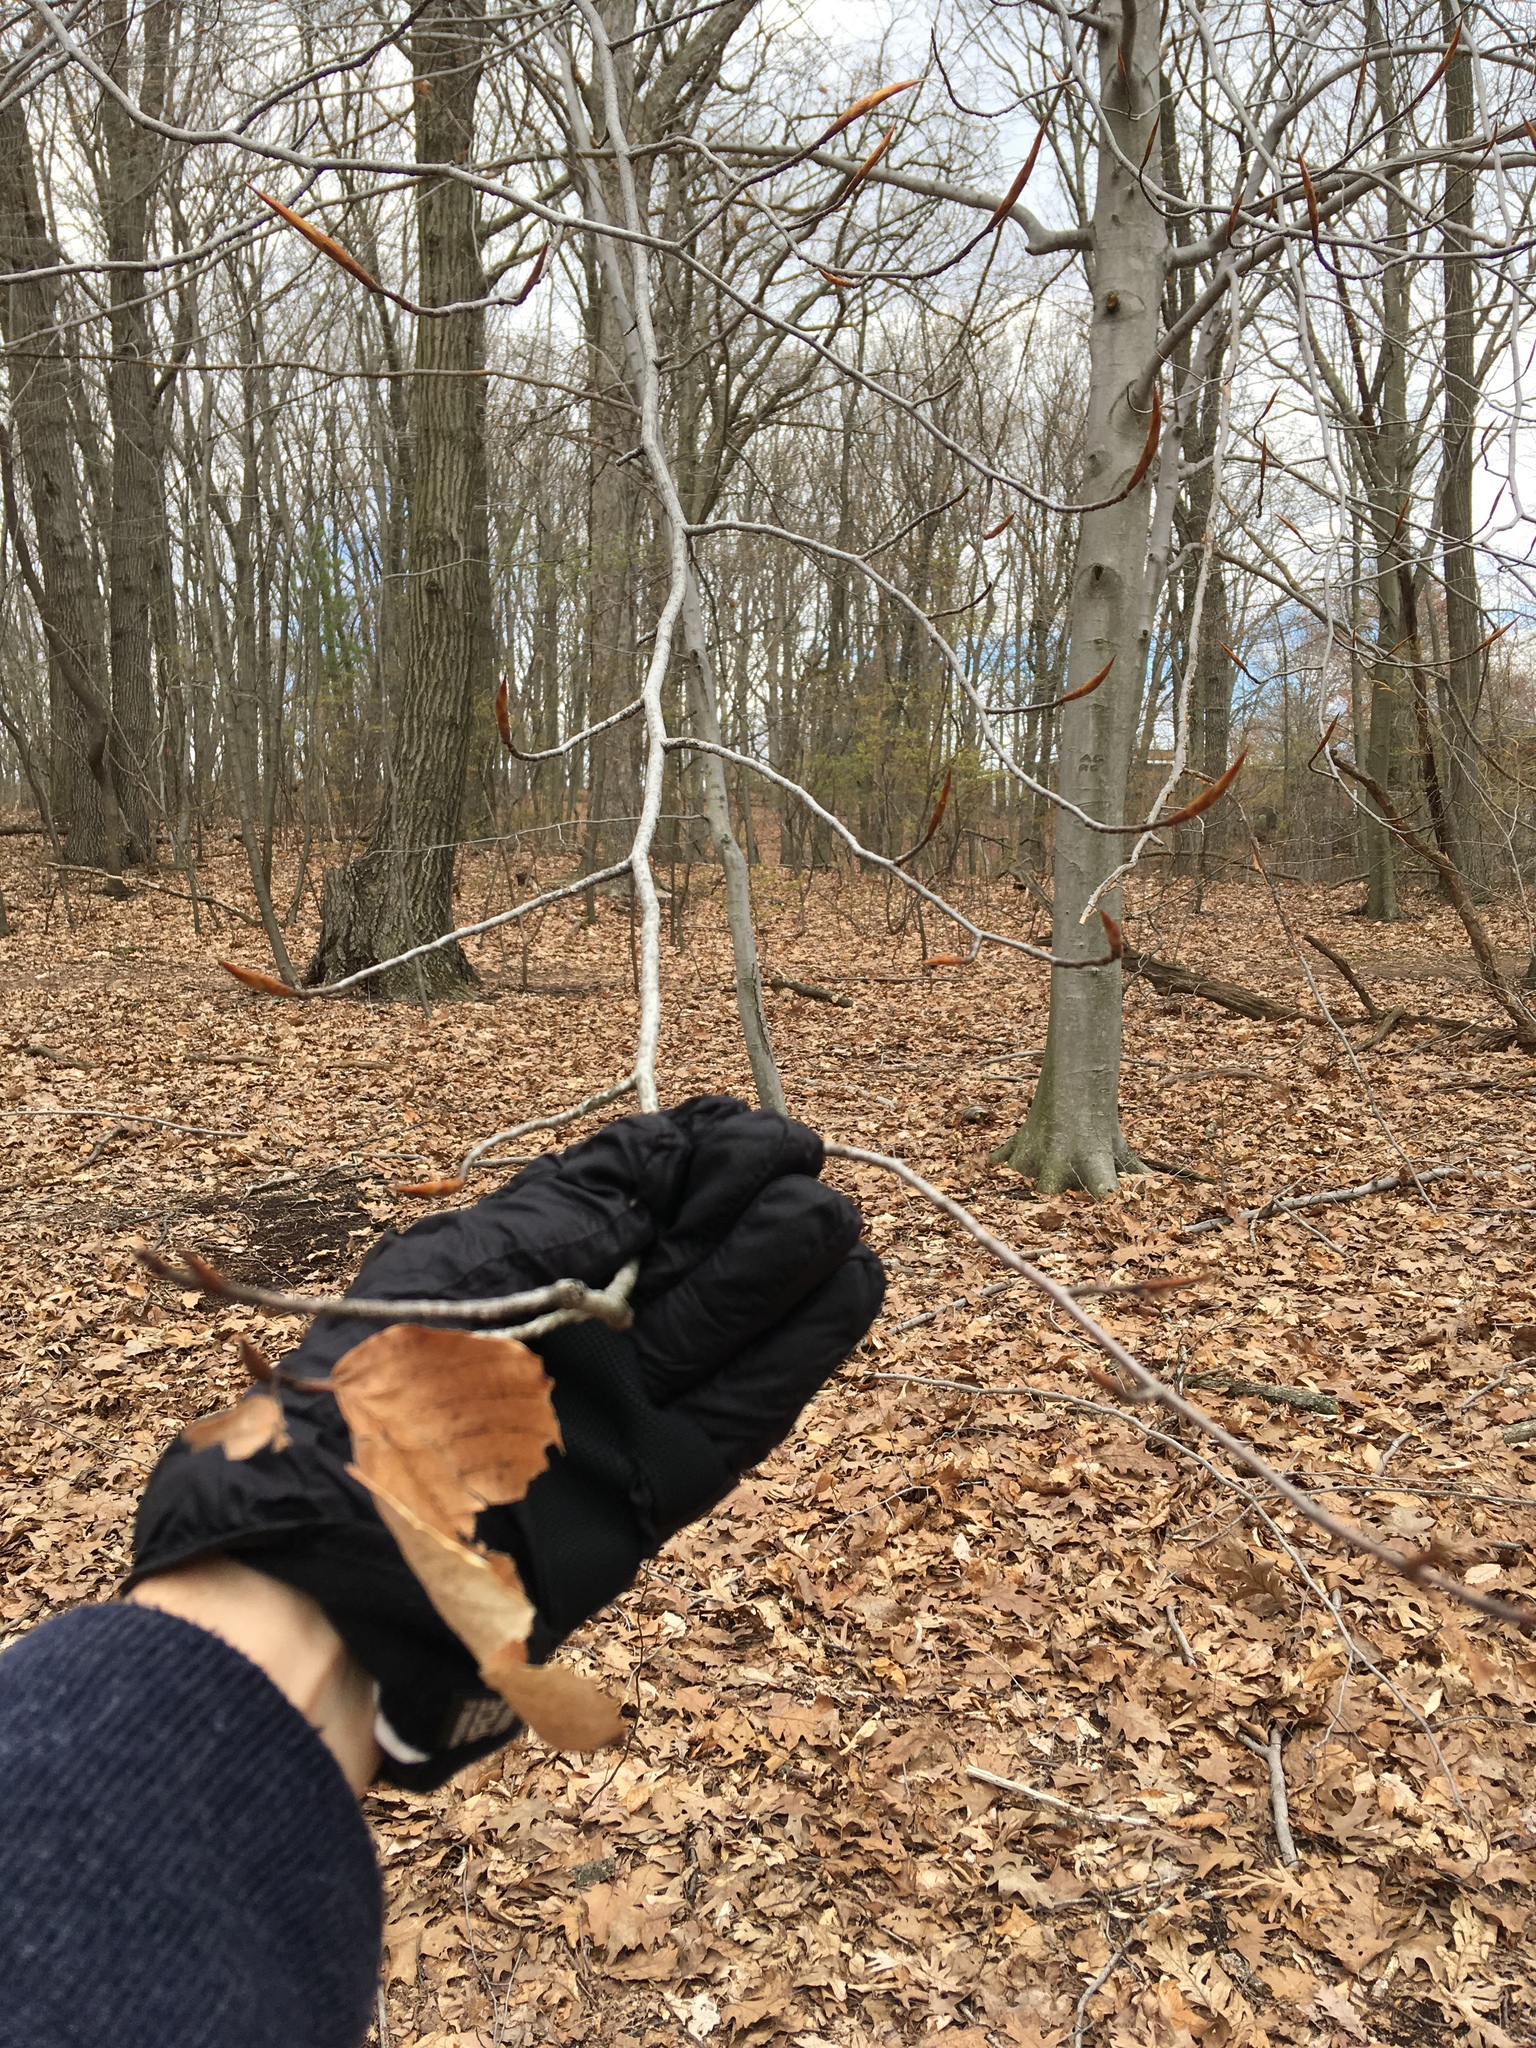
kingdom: Plantae
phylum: Tracheophyta
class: Magnoliopsida
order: Fagales
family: Fagaceae
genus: Fagus
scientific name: Fagus grandifolia
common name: American beech
